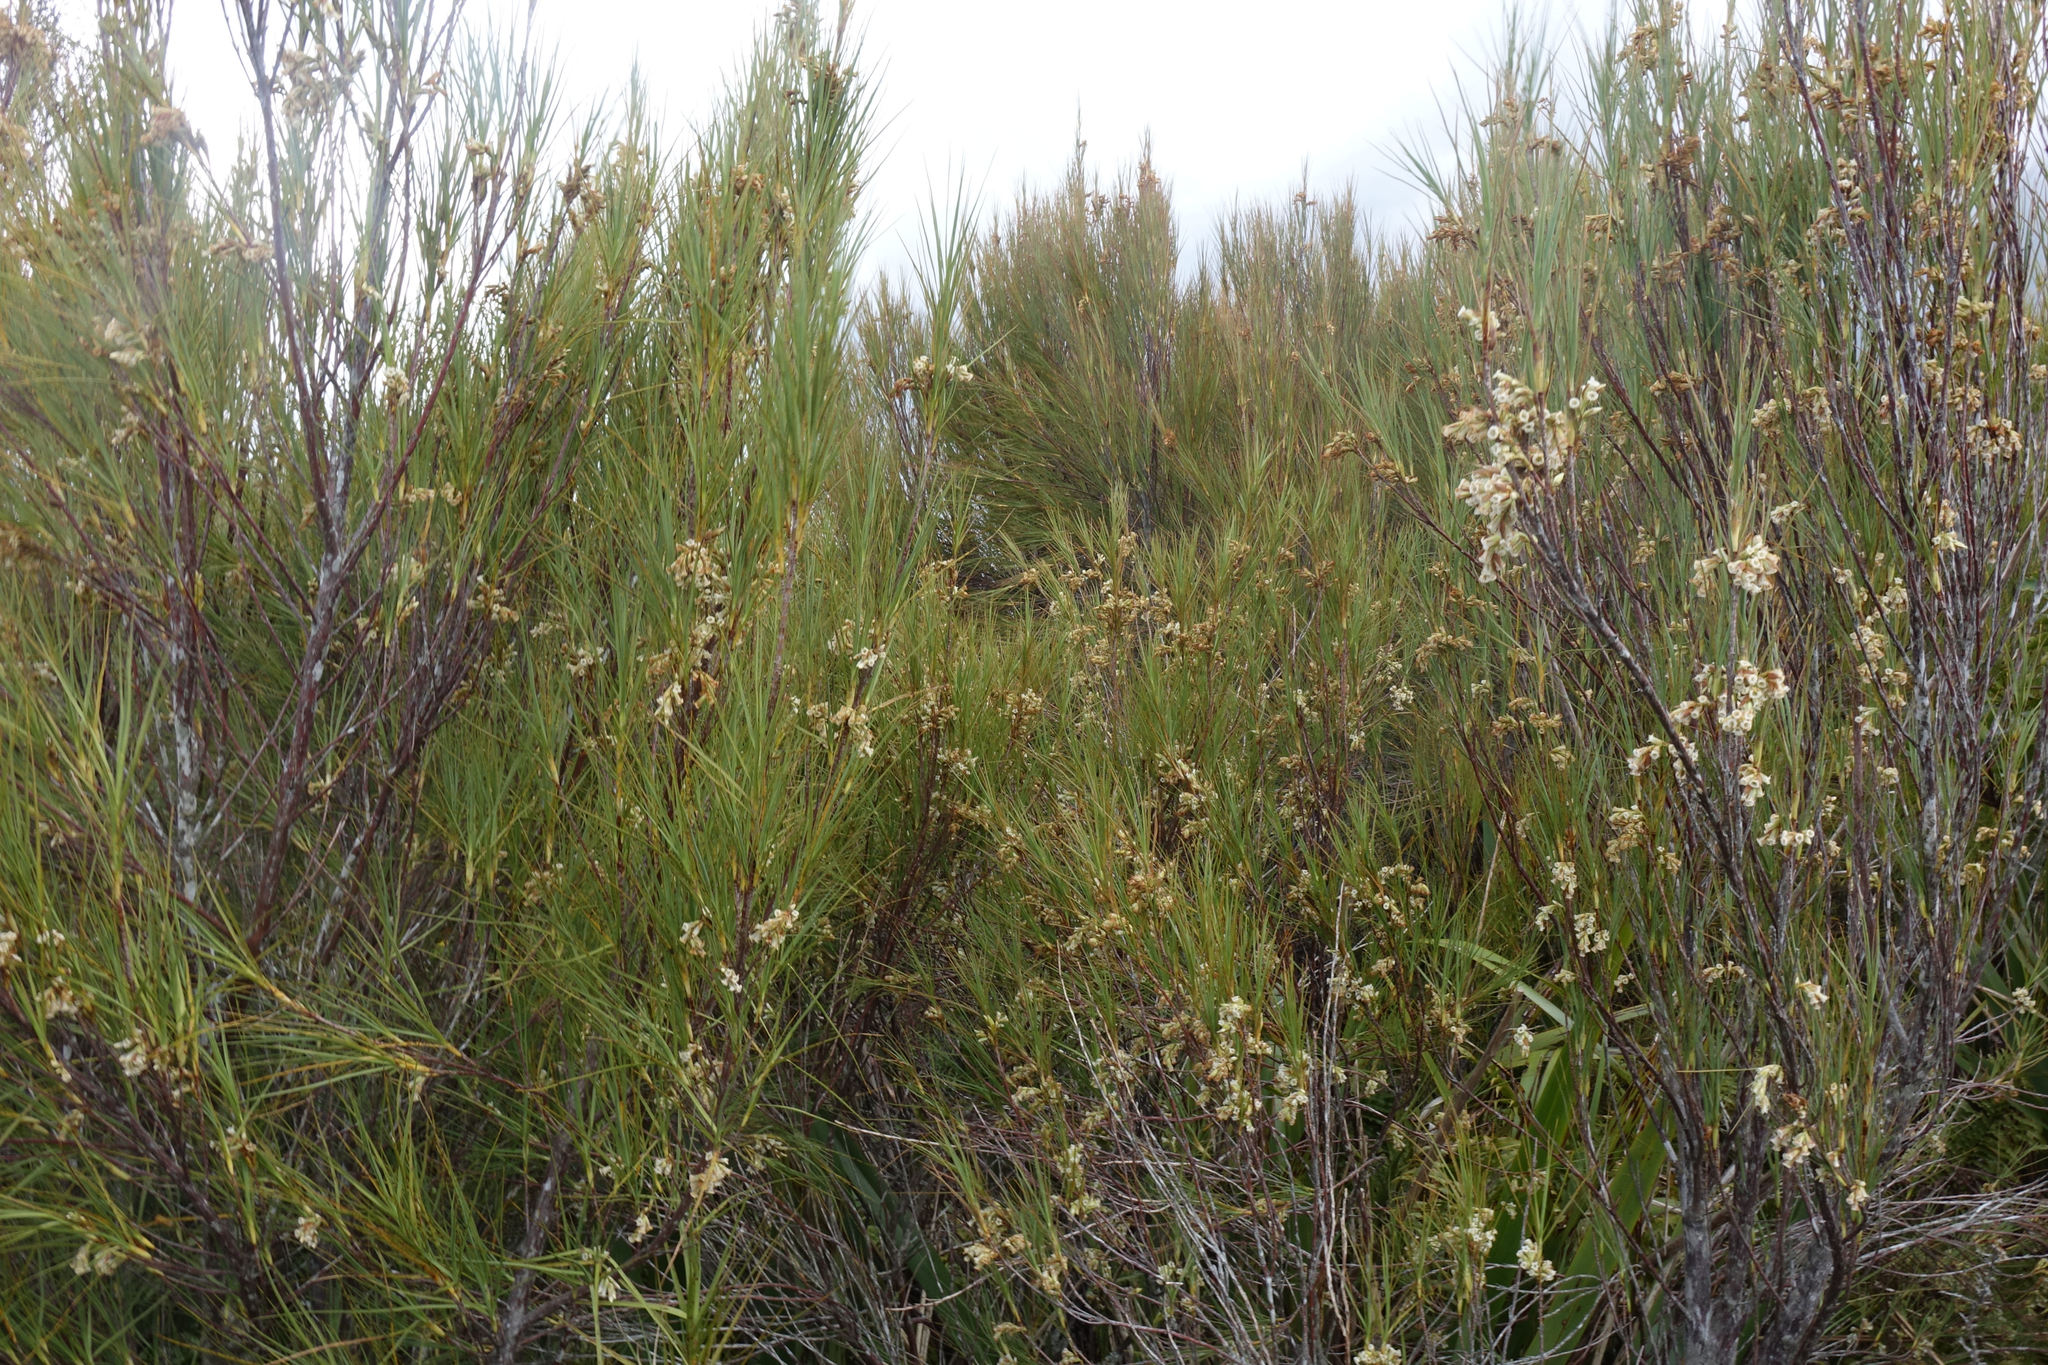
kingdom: Plantae
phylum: Tracheophyta
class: Magnoliopsida
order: Ericales
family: Ericaceae
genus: Dracophyllum
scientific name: Dracophyllum longifolium
